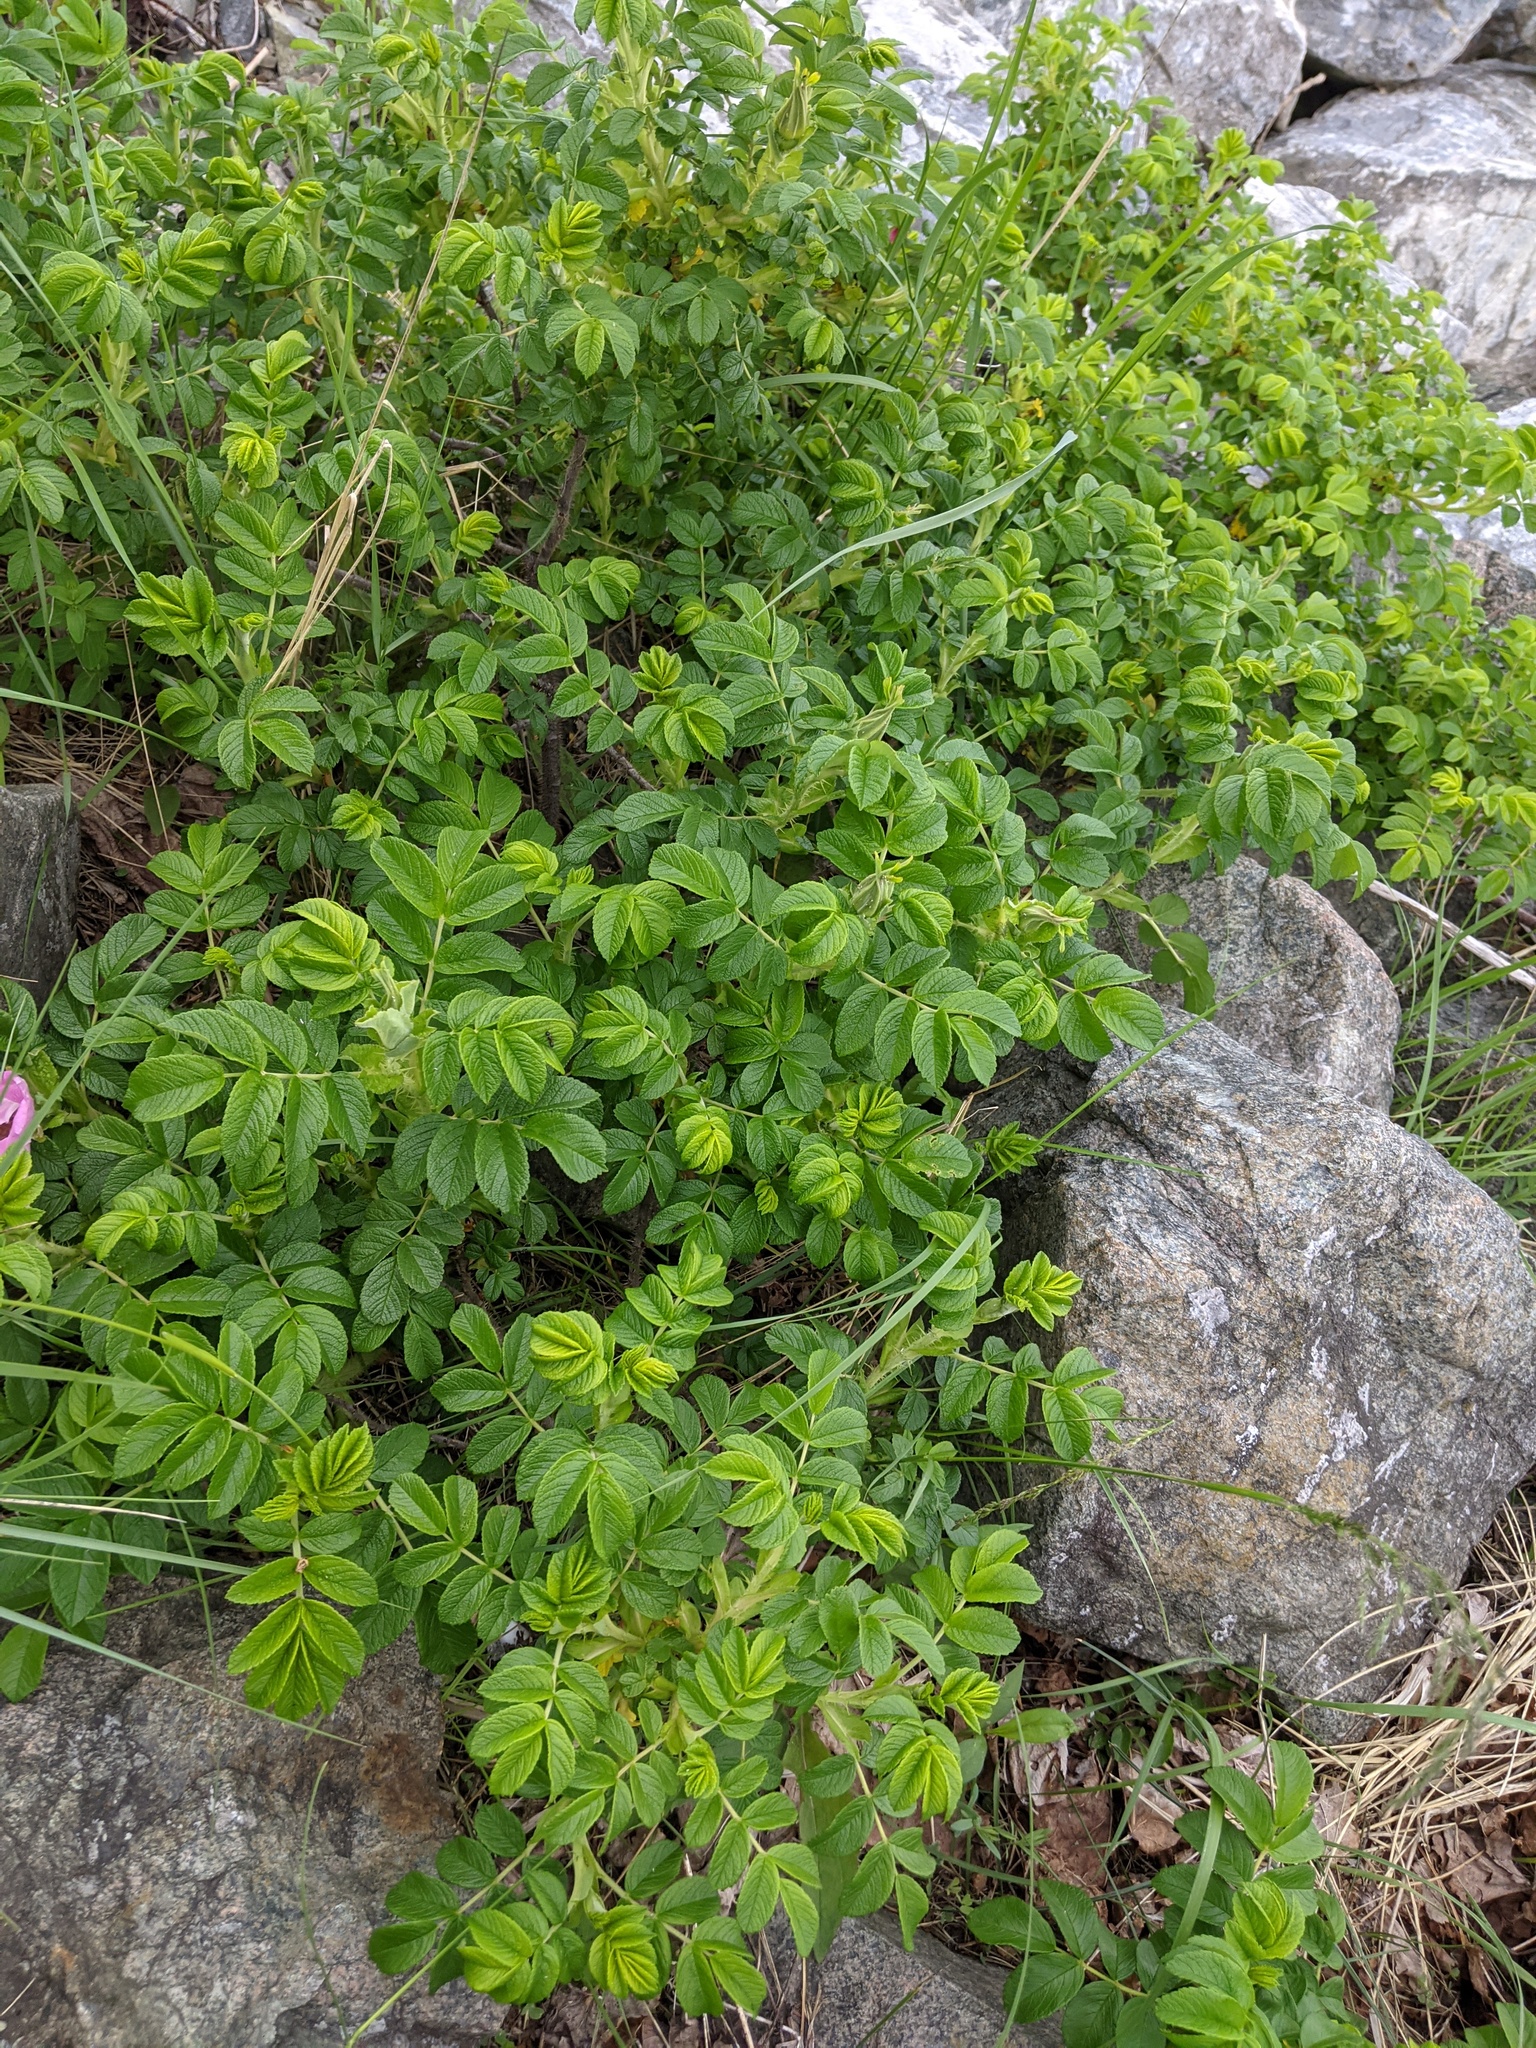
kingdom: Plantae
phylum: Tracheophyta
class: Magnoliopsida
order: Rosales
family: Rosaceae
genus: Rosa
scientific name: Rosa rugosa
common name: Japanese rose
